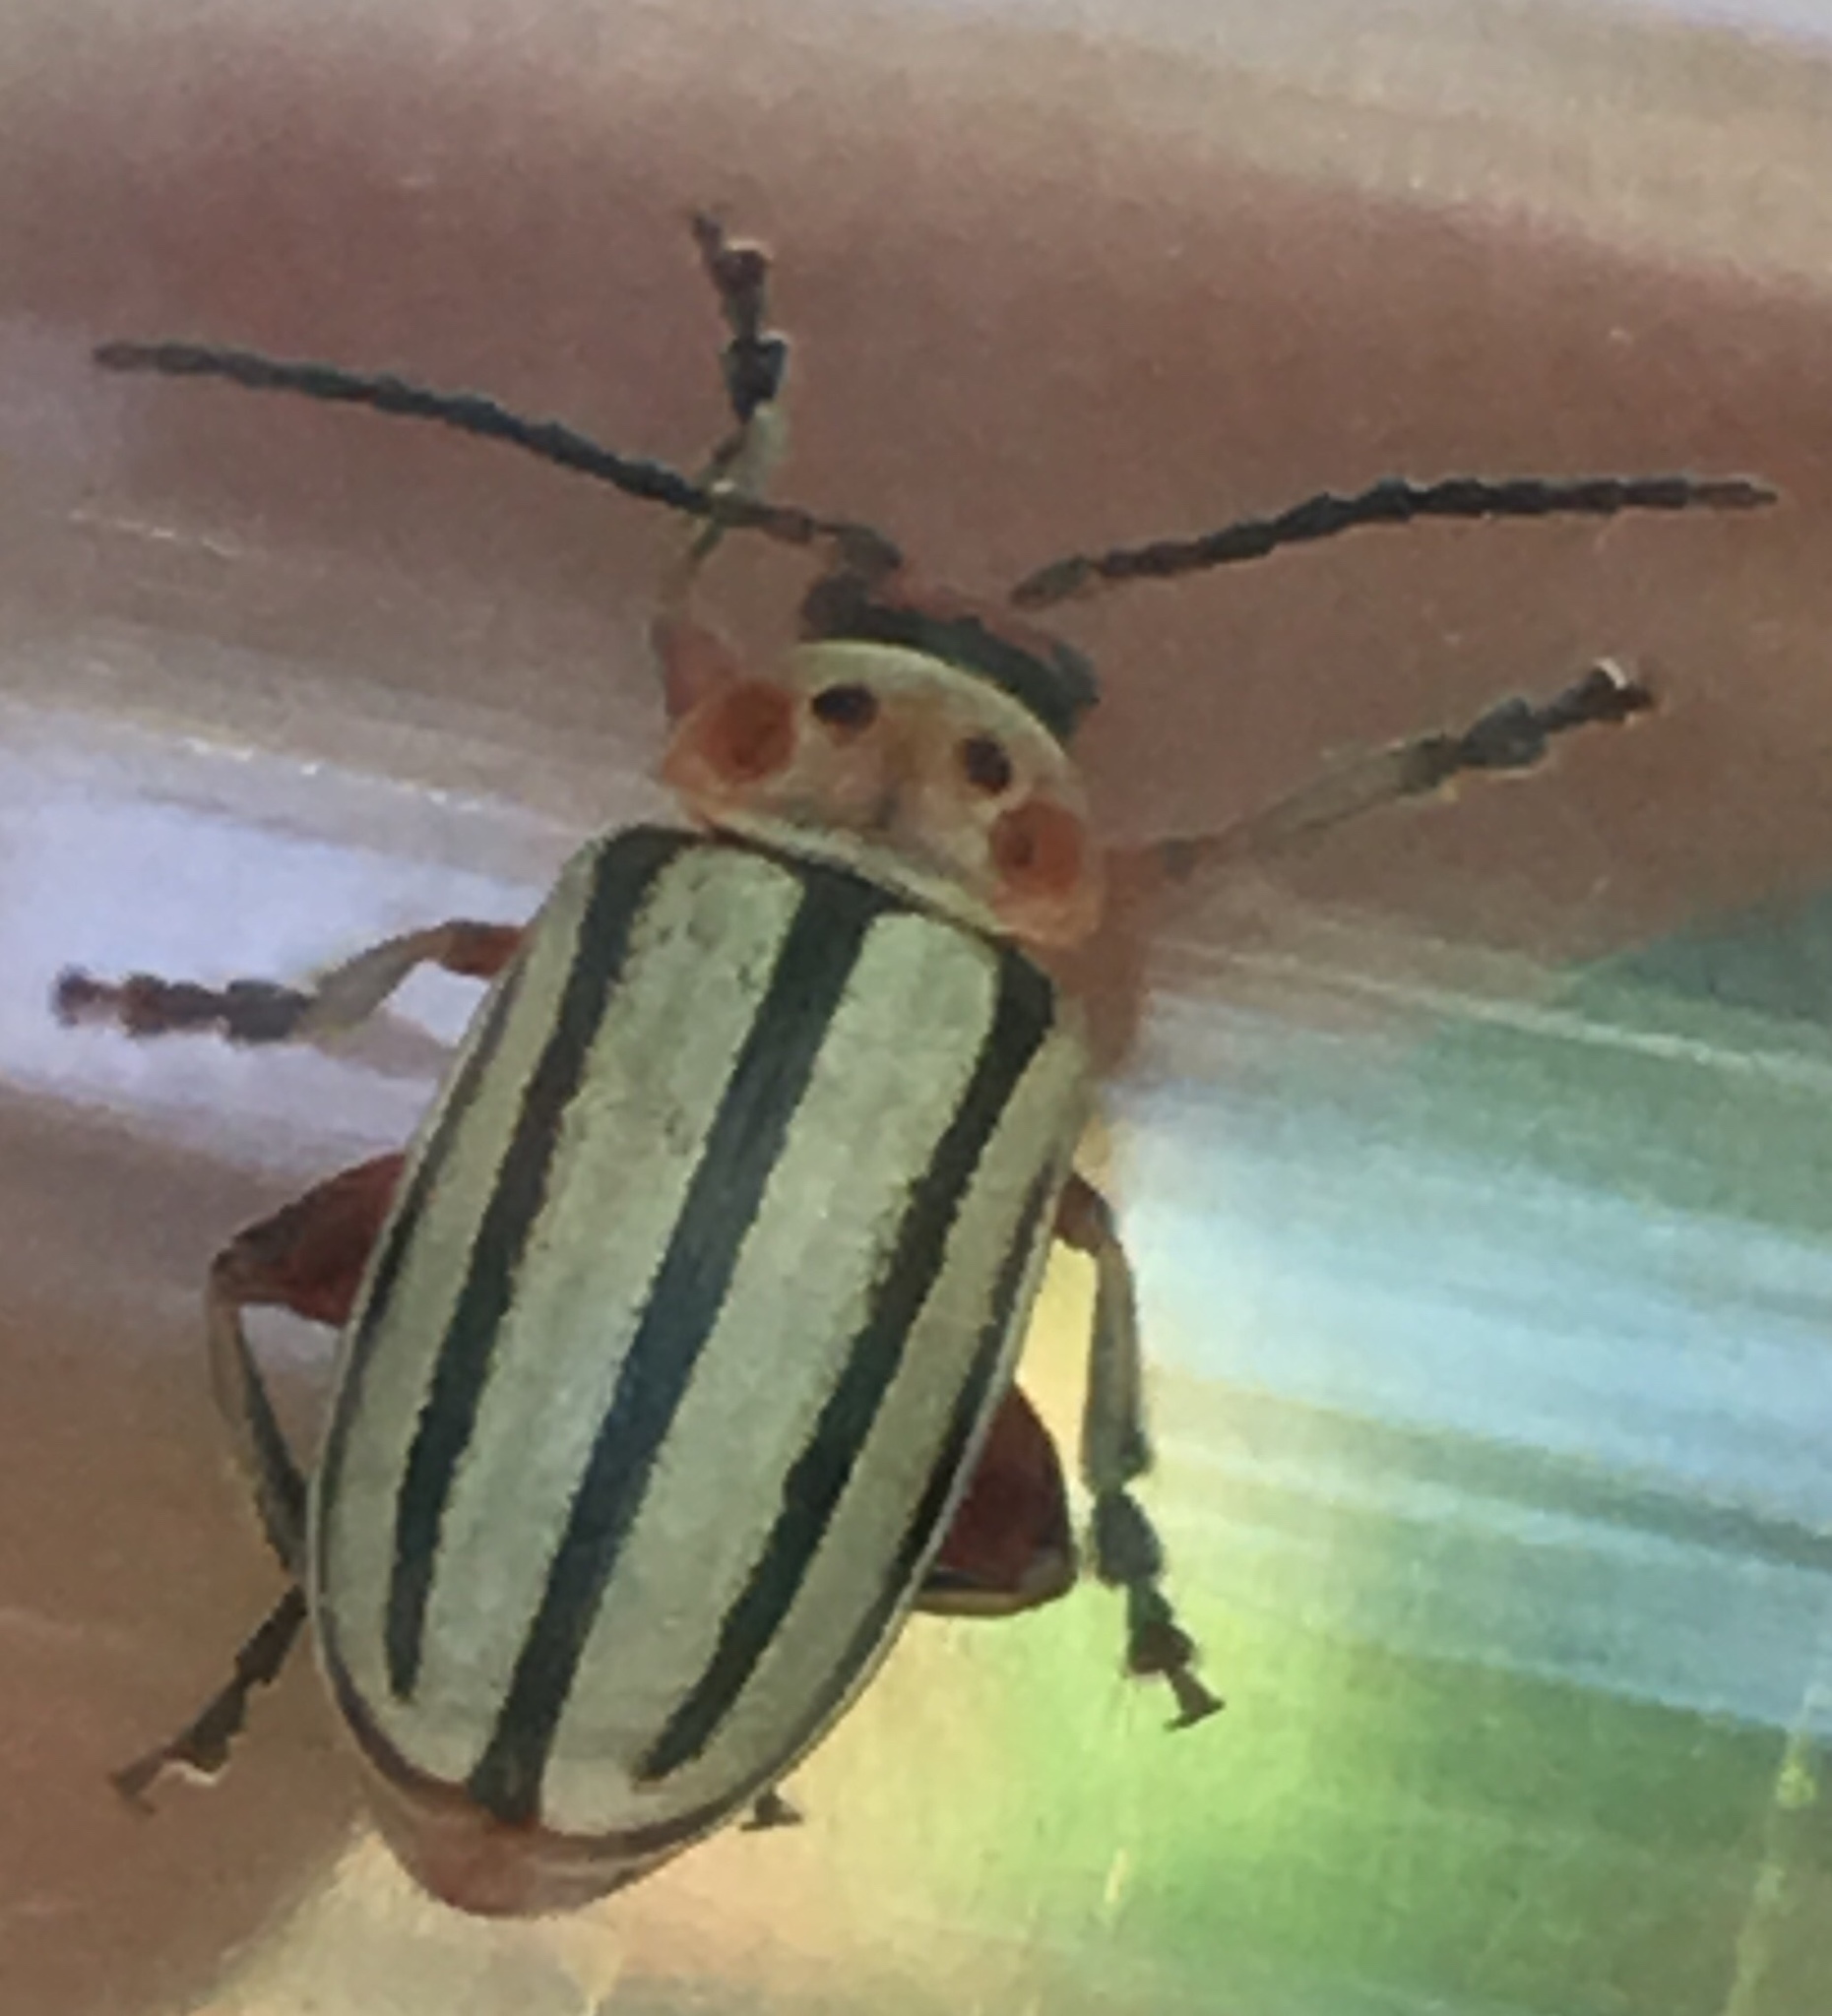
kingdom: Animalia
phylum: Arthropoda
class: Insecta
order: Coleoptera
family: Chrysomelidae
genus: Disonycha
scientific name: Disonycha alternata
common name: Striped willow leaf beetle
